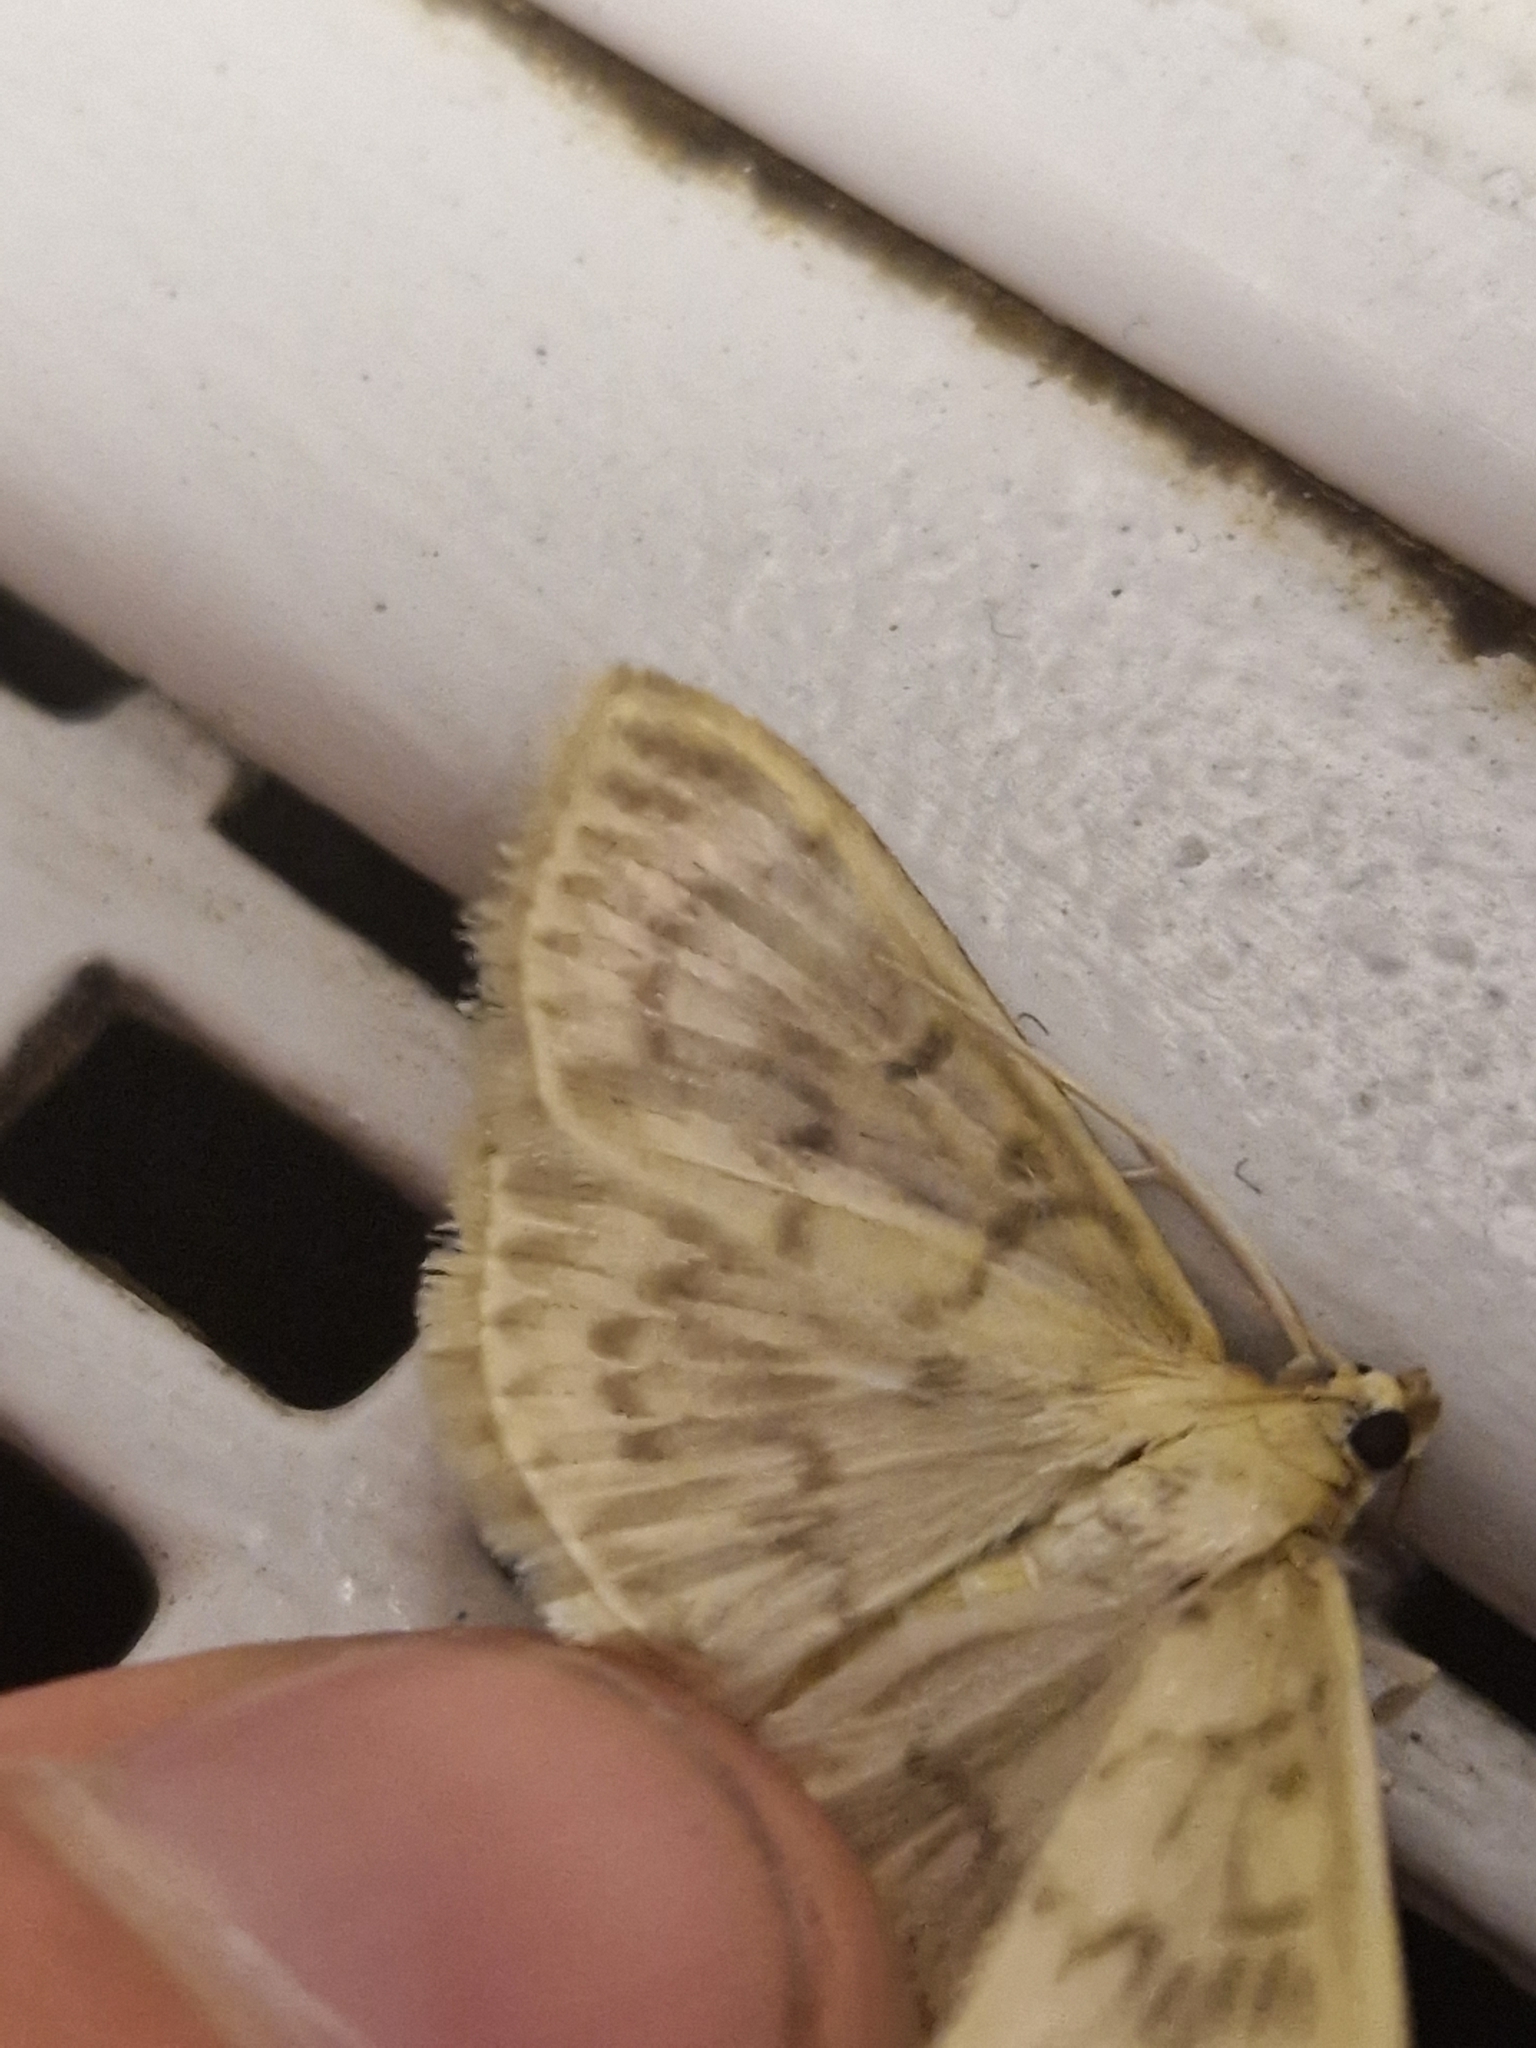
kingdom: Animalia
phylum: Arthropoda
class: Insecta
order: Lepidoptera
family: Crambidae
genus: Patania
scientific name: Patania ruralis
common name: Mother of pearl
